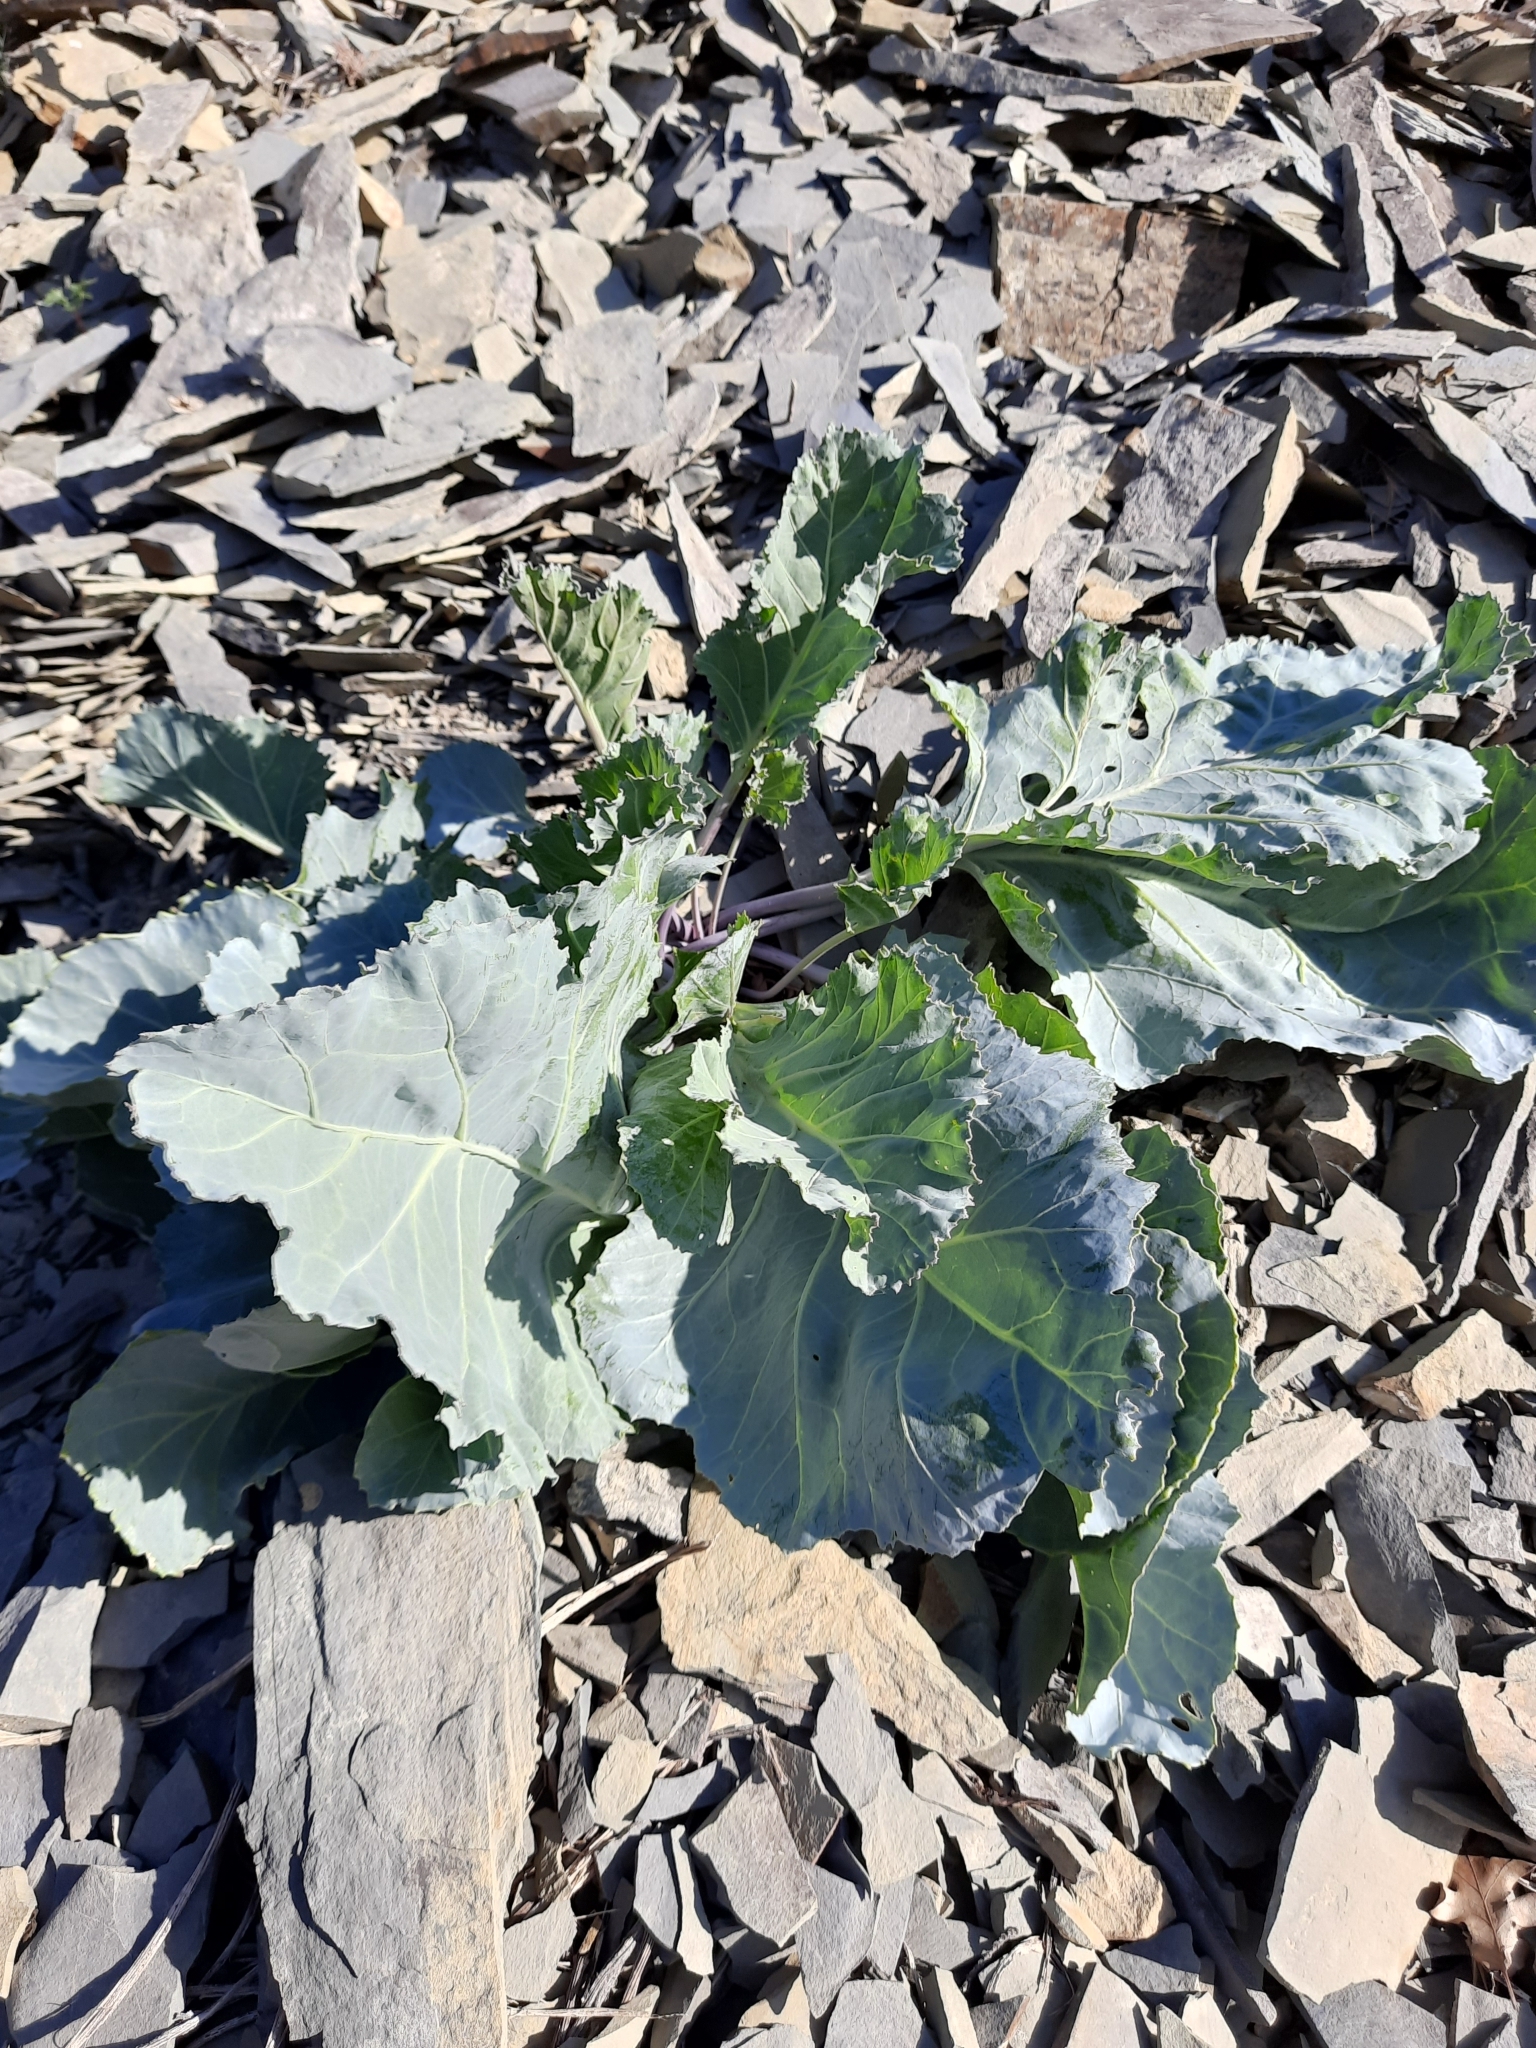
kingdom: Plantae
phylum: Tracheophyta
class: Magnoliopsida
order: Brassicales
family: Brassicaceae
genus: Crambe
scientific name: Crambe maritima
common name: Sea-kale
